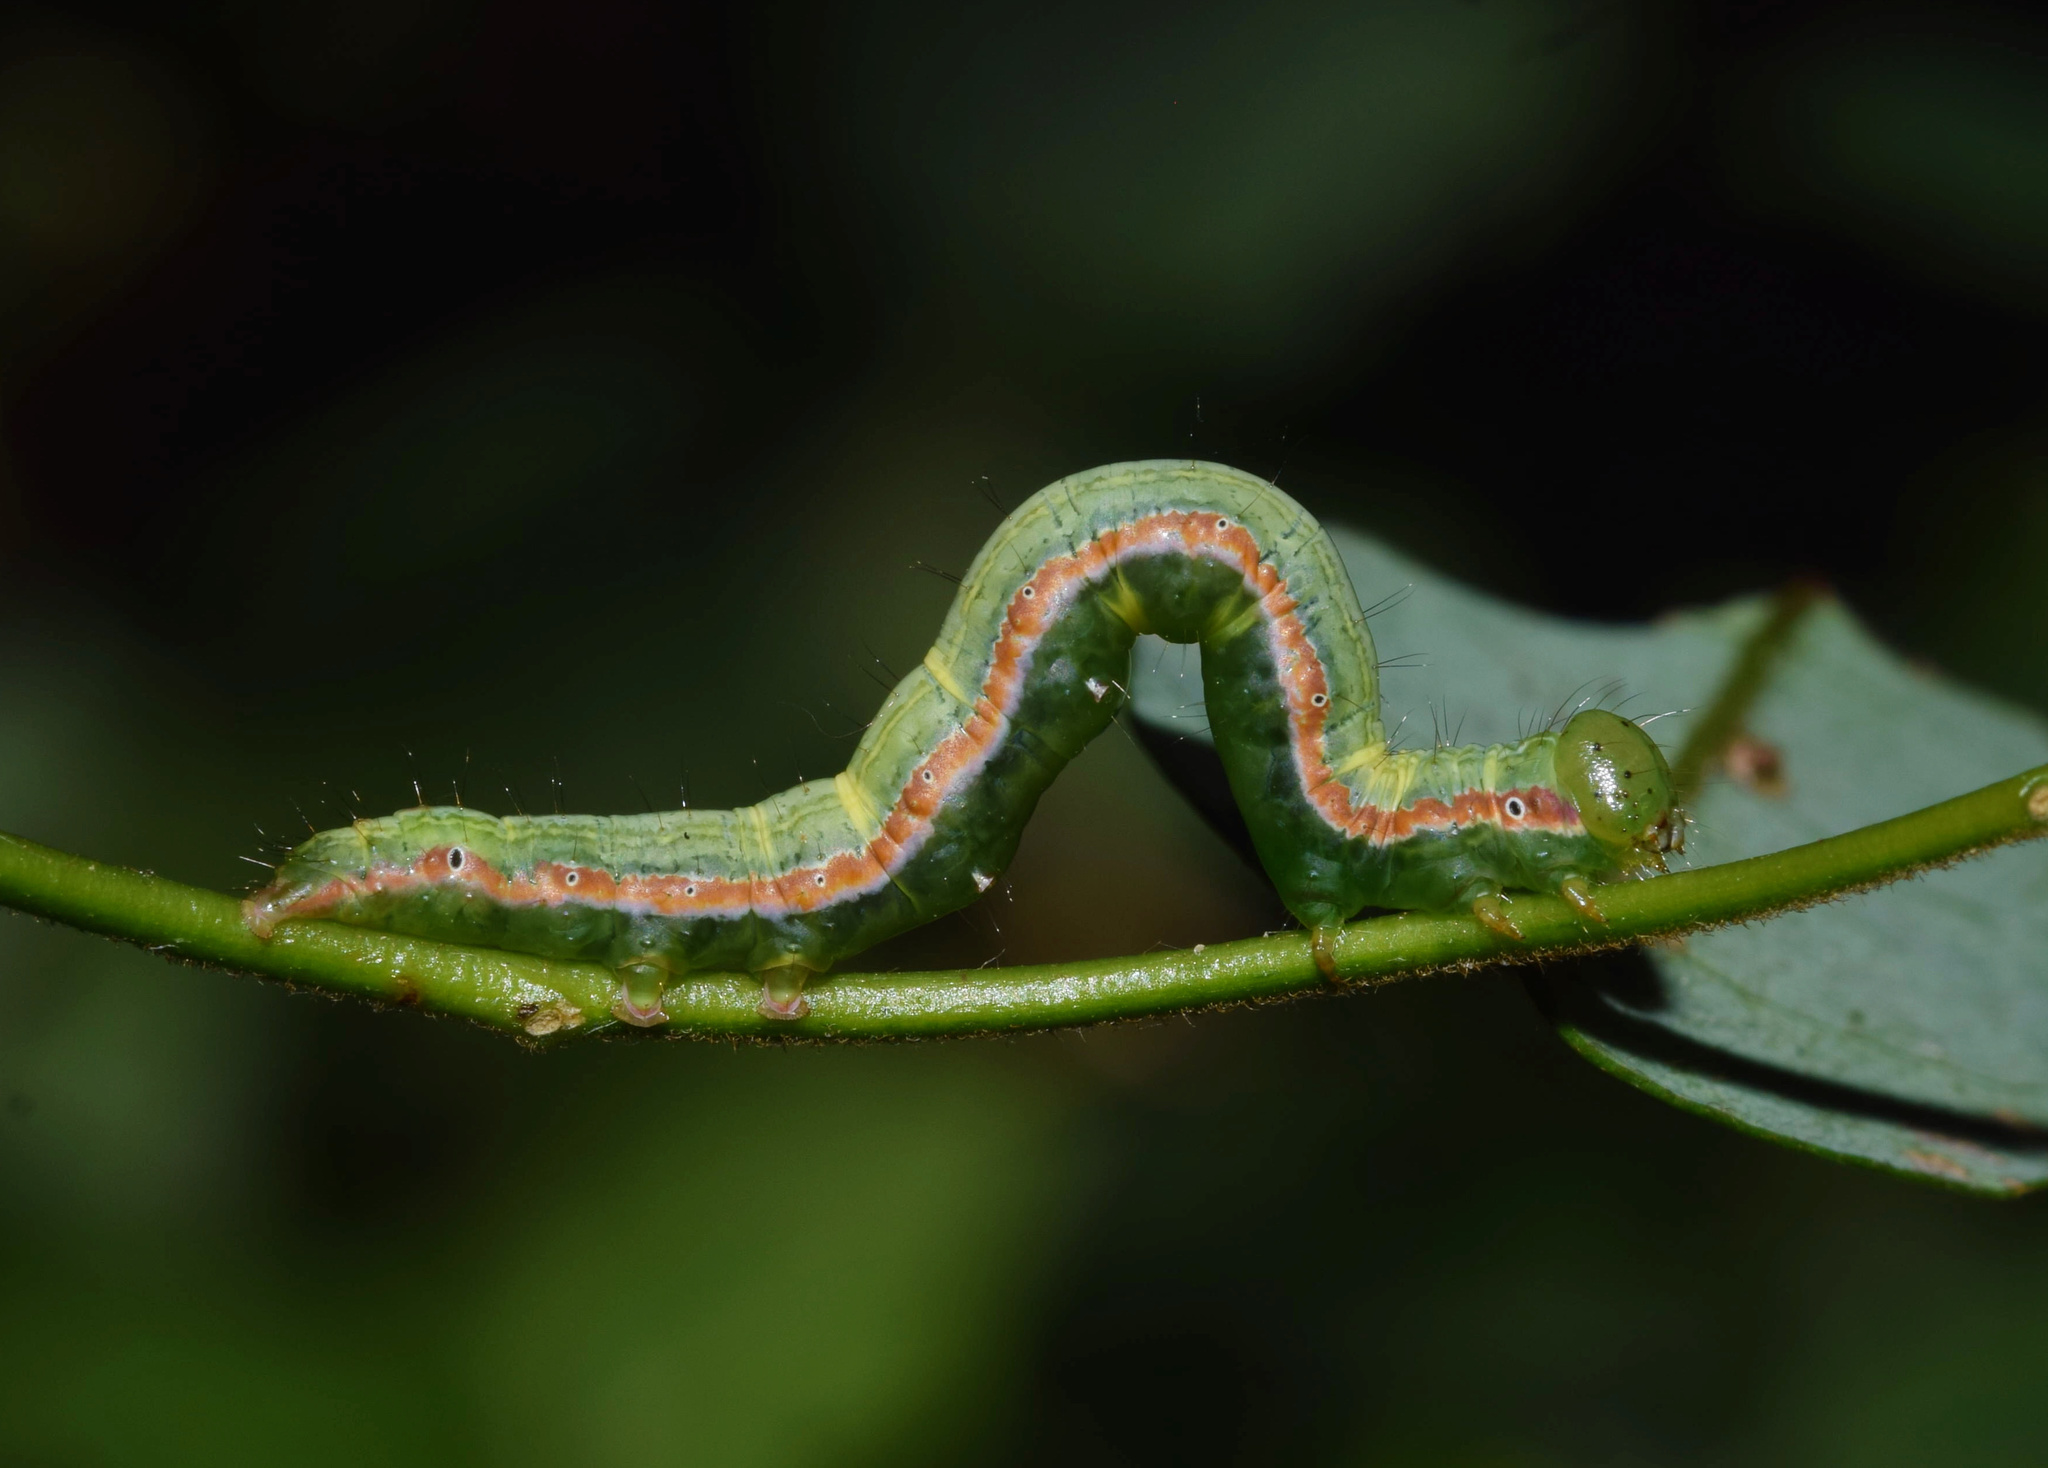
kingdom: Animalia
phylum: Arthropoda
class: Insecta
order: Lepidoptera
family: Erebidae
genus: Bertula
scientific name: Bertula inconspicua
